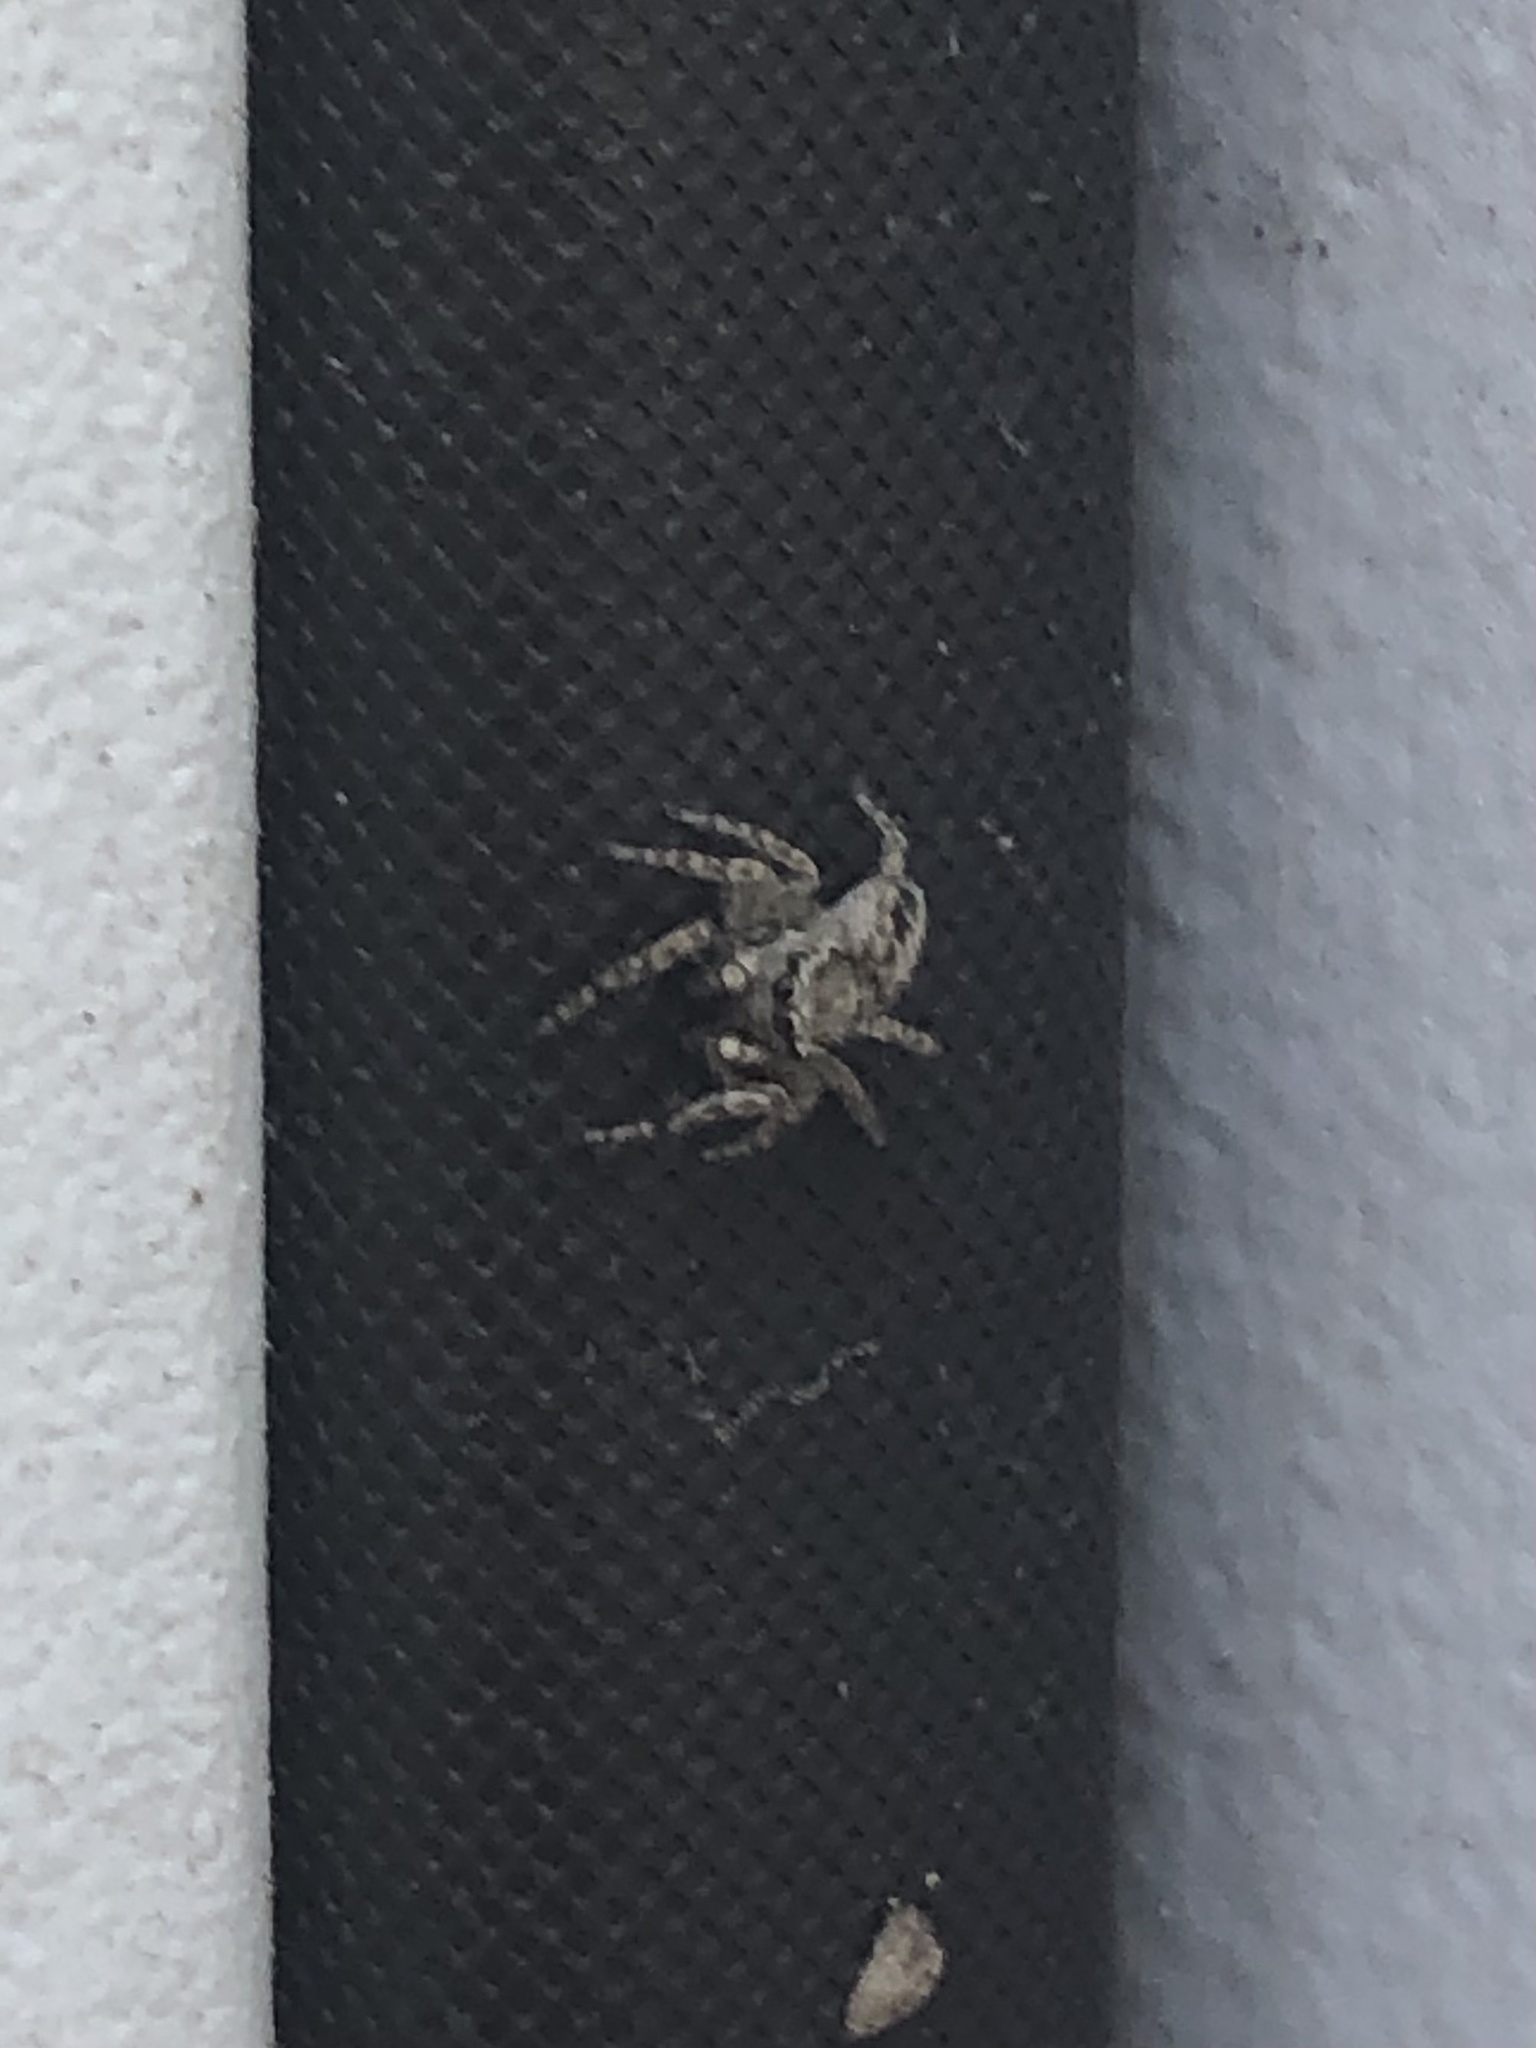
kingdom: Animalia
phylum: Arthropoda
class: Arachnida
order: Araneae
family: Salticidae
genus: Attulus
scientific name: Attulus ammophilus
